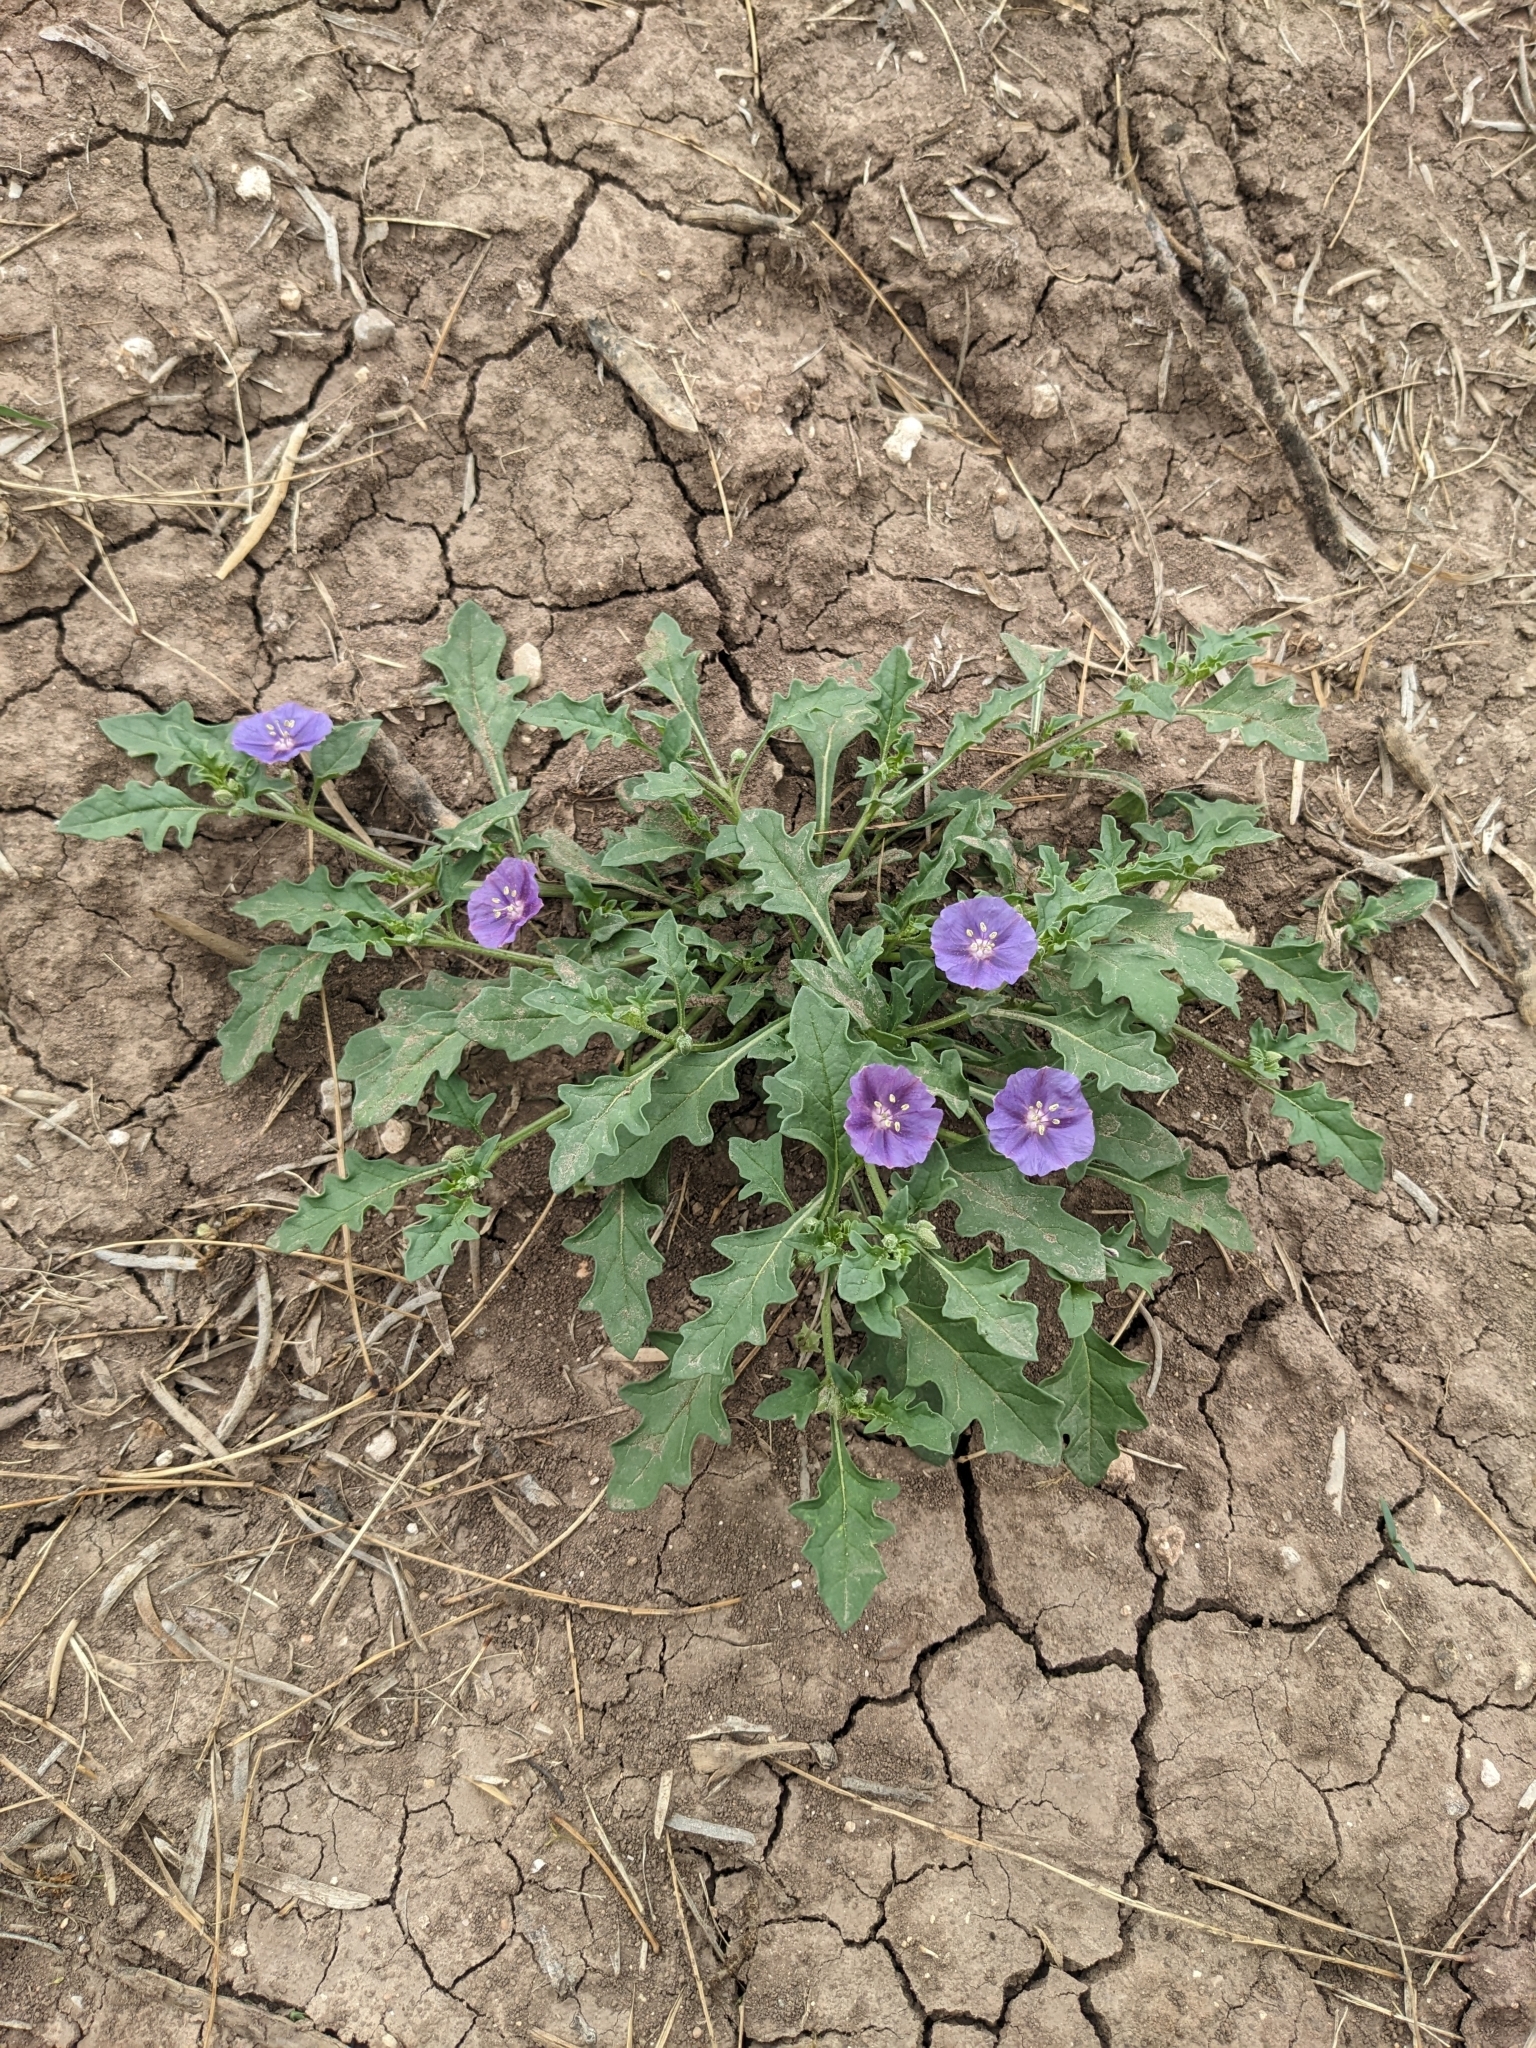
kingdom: Plantae
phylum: Tracheophyta
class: Magnoliopsida
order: Solanales
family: Solanaceae
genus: Quincula
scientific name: Quincula lobata
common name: Purple-ground-cherry
